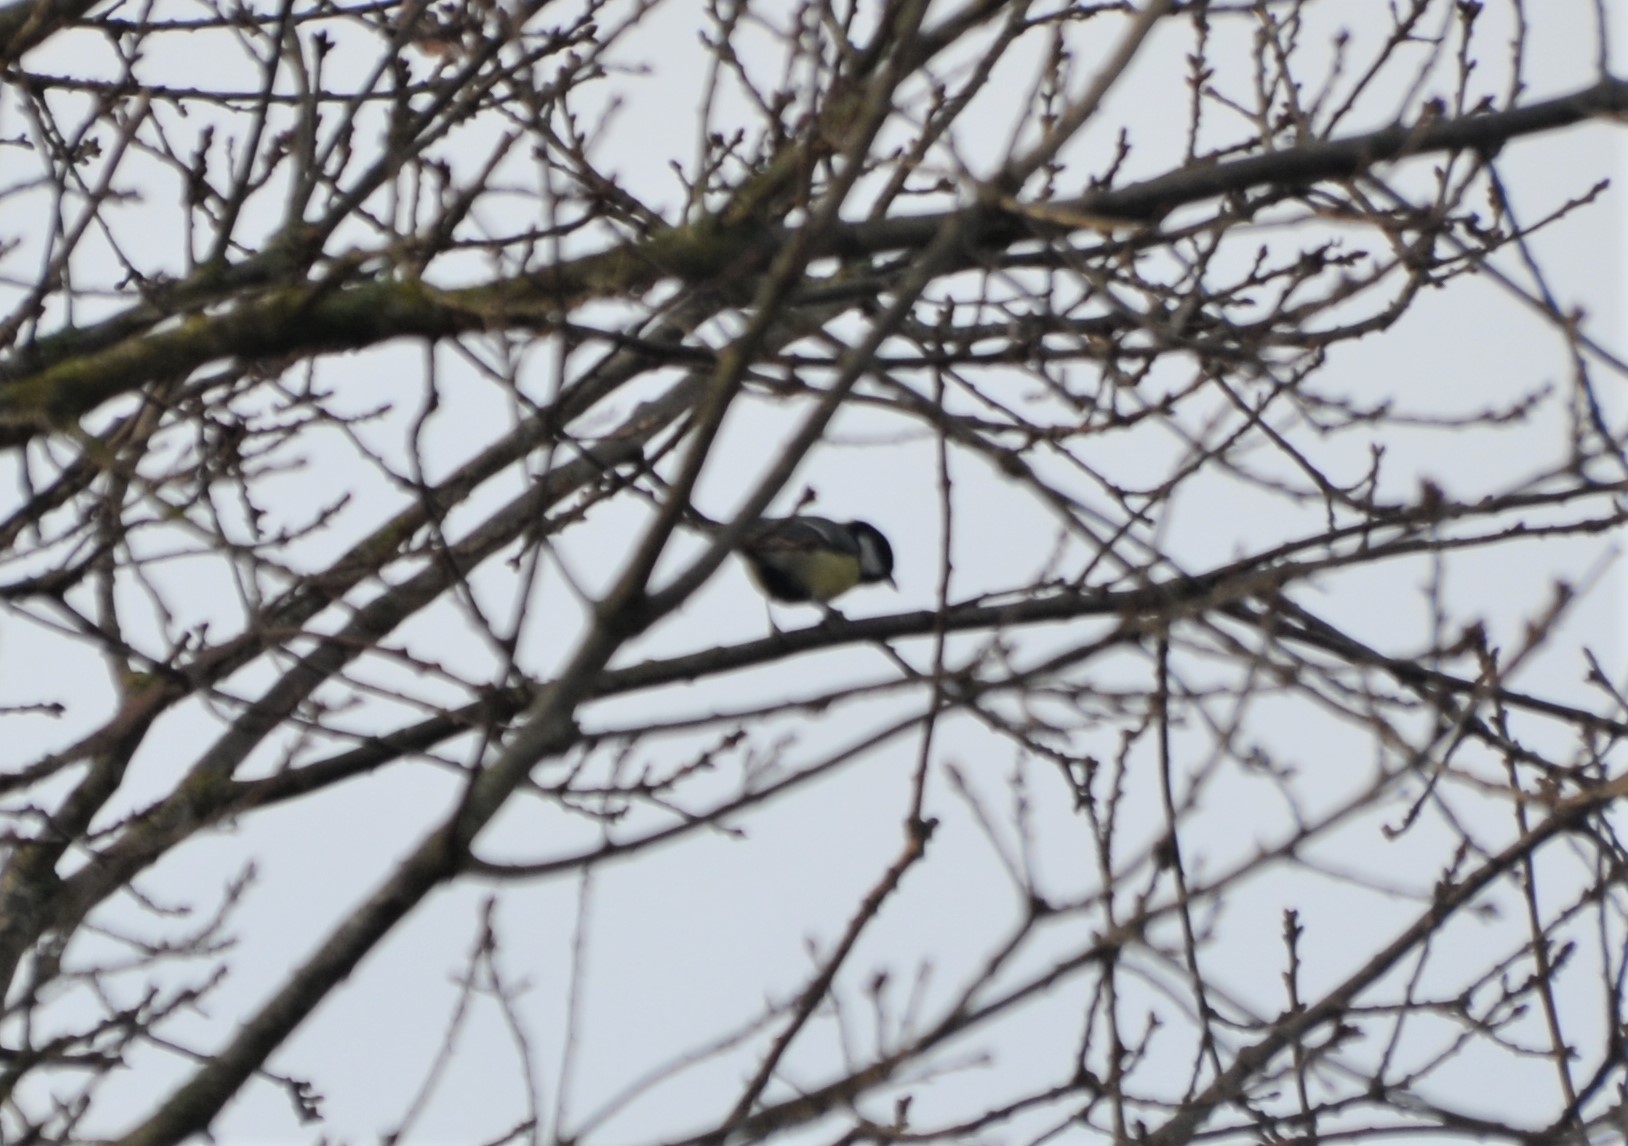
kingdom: Animalia
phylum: Chordata
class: Aves
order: Passeriformes
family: Paridae
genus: Parus
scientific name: Parus major
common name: Great tit
